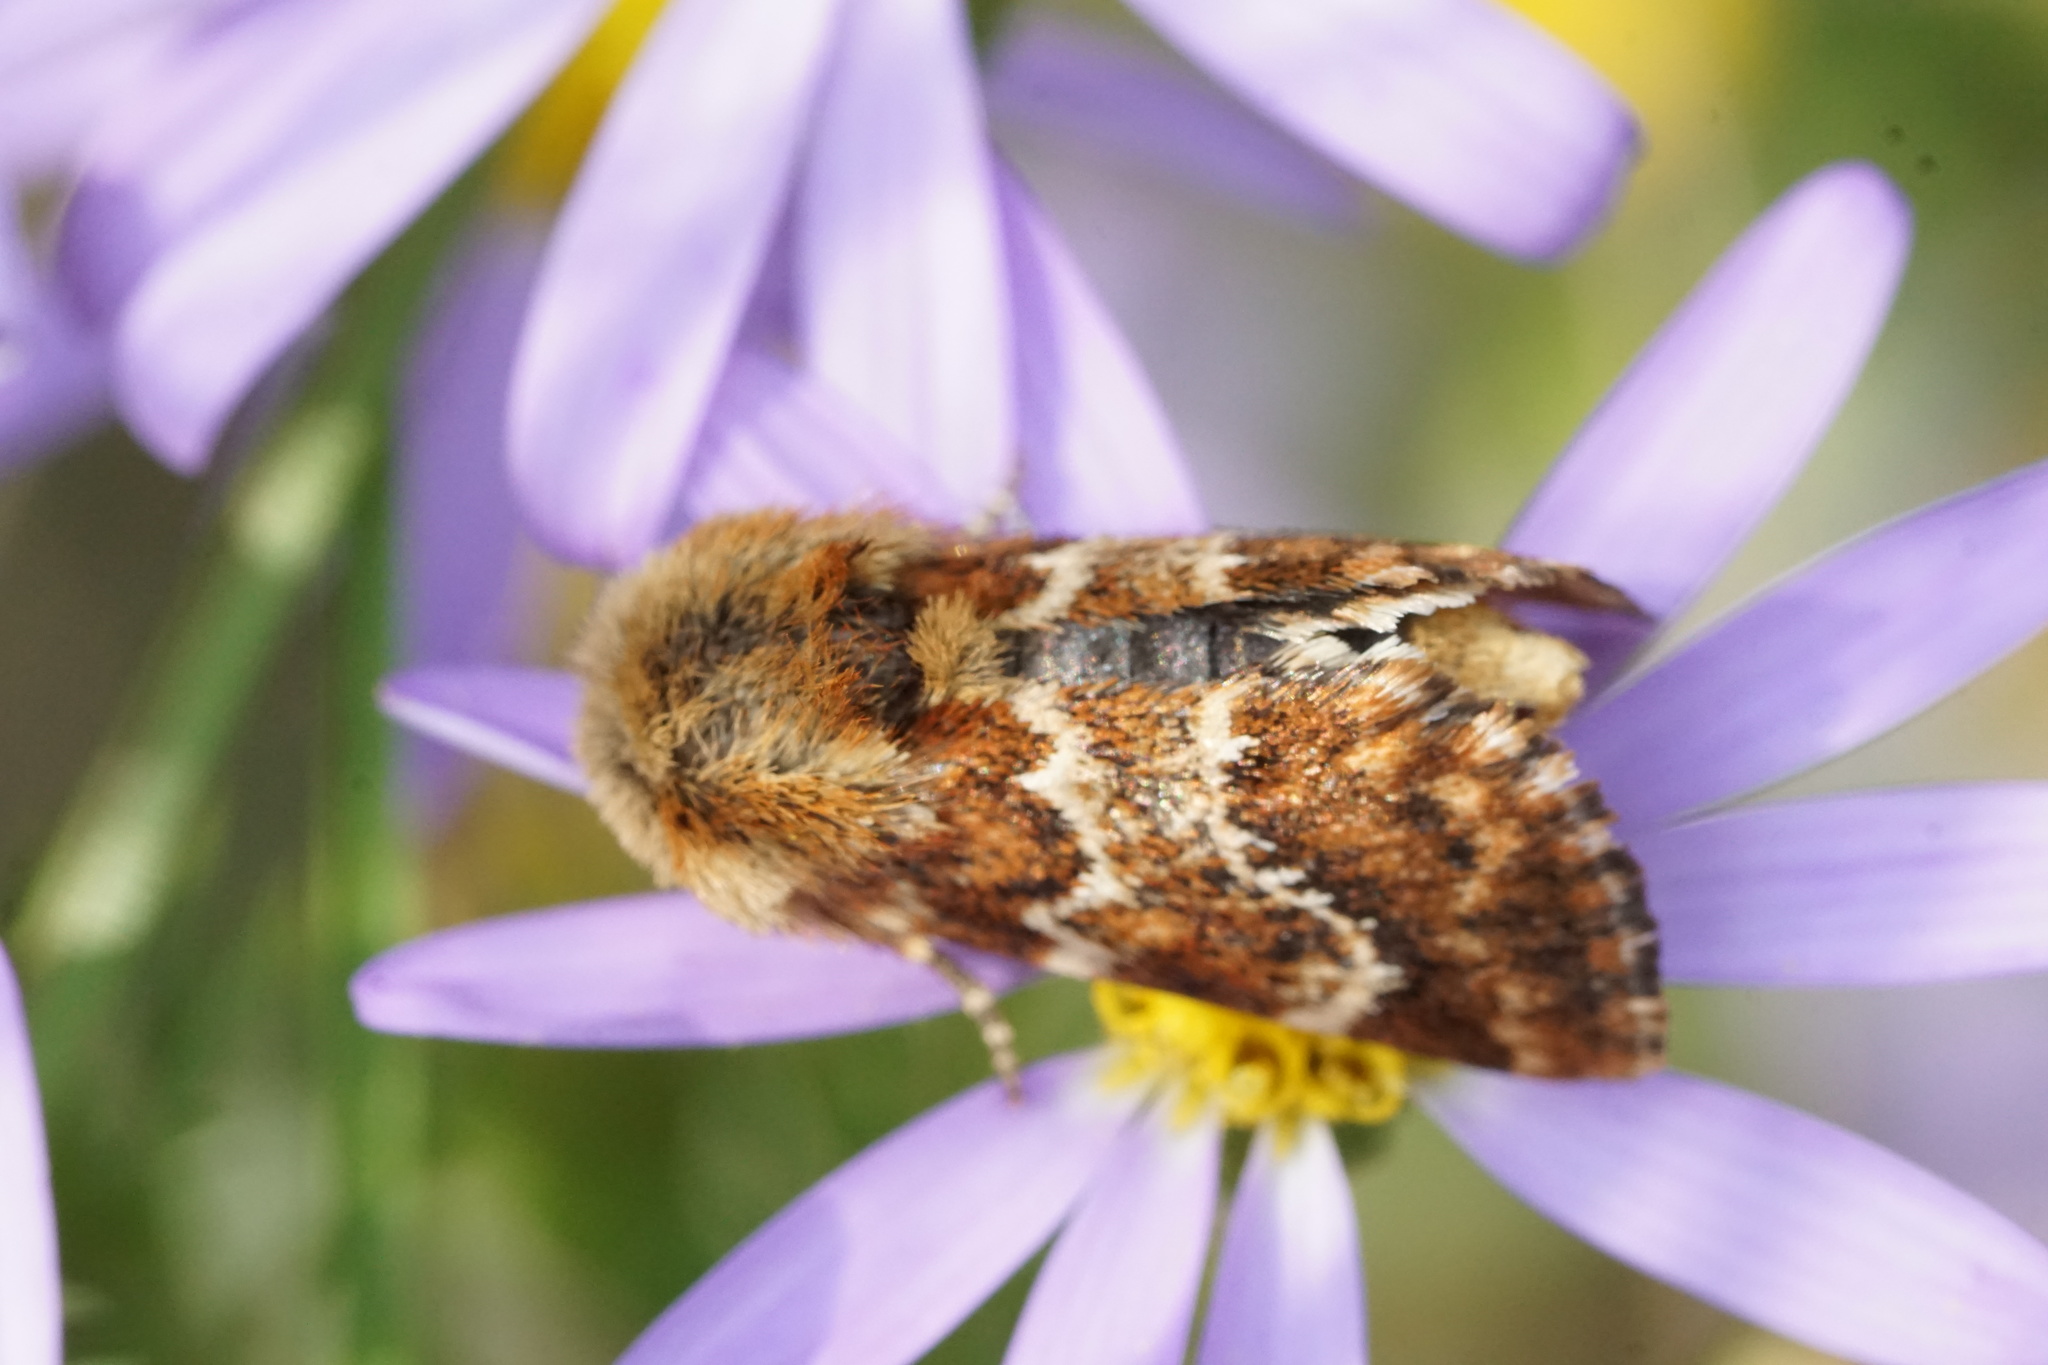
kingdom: Animalia
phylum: Arthropoda
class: Insecta
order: Lepidoptera
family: Noctuidae
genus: Schinia
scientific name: Schinia septentrionalis
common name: Northern flower moth
